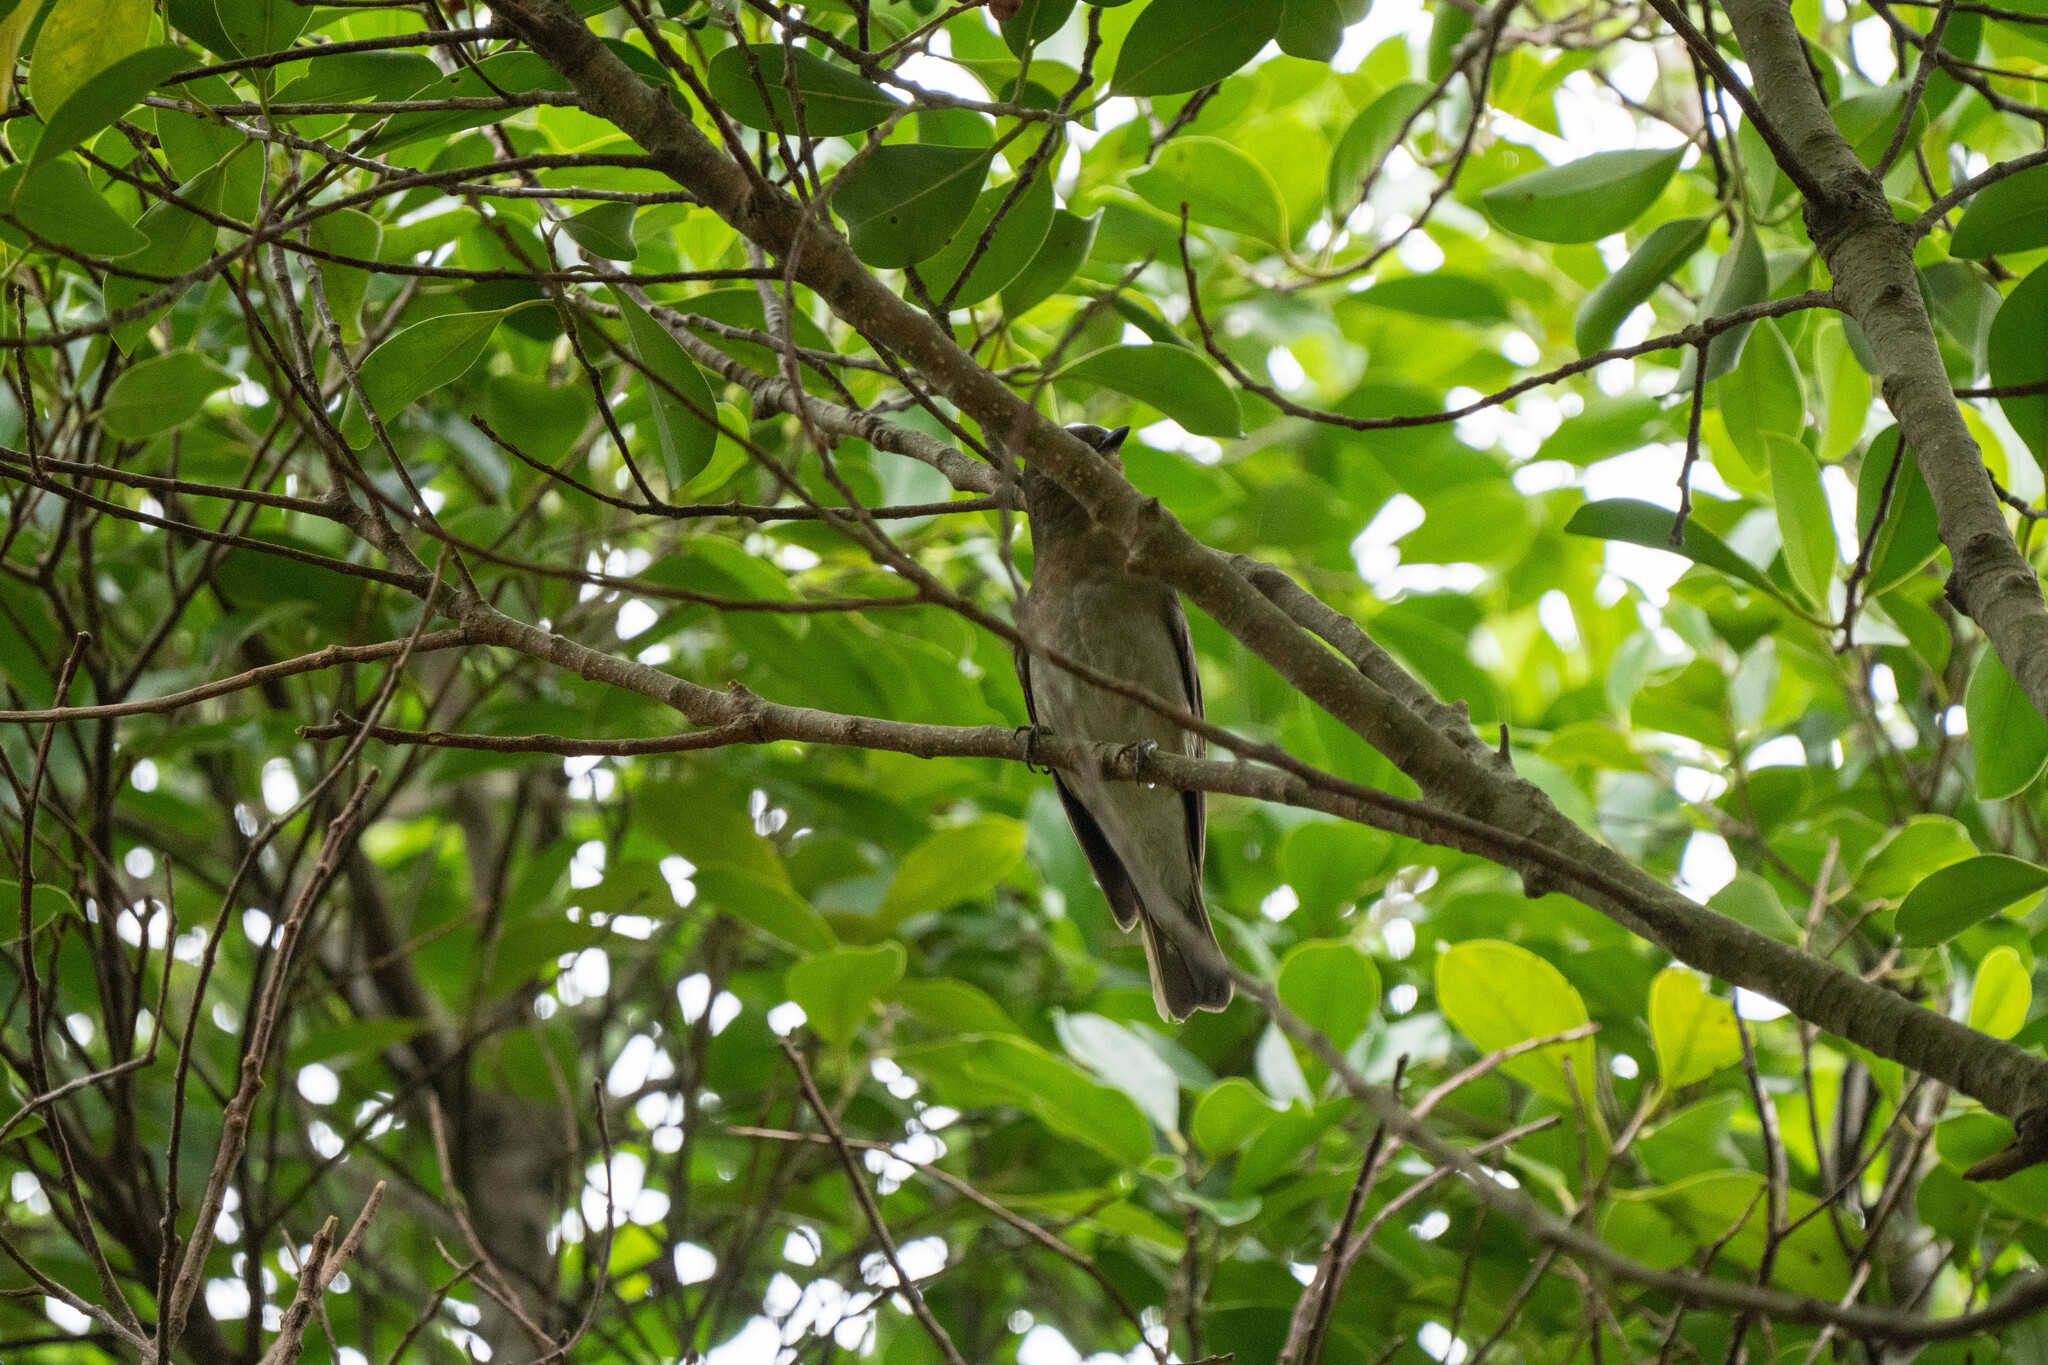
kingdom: Animalia
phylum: Chordata
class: Aves
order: Passeriformes
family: Muscicapidae
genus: Cyanoptila
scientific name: Cyanoptila cyanomelana
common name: Blue-and-white flycatcher
